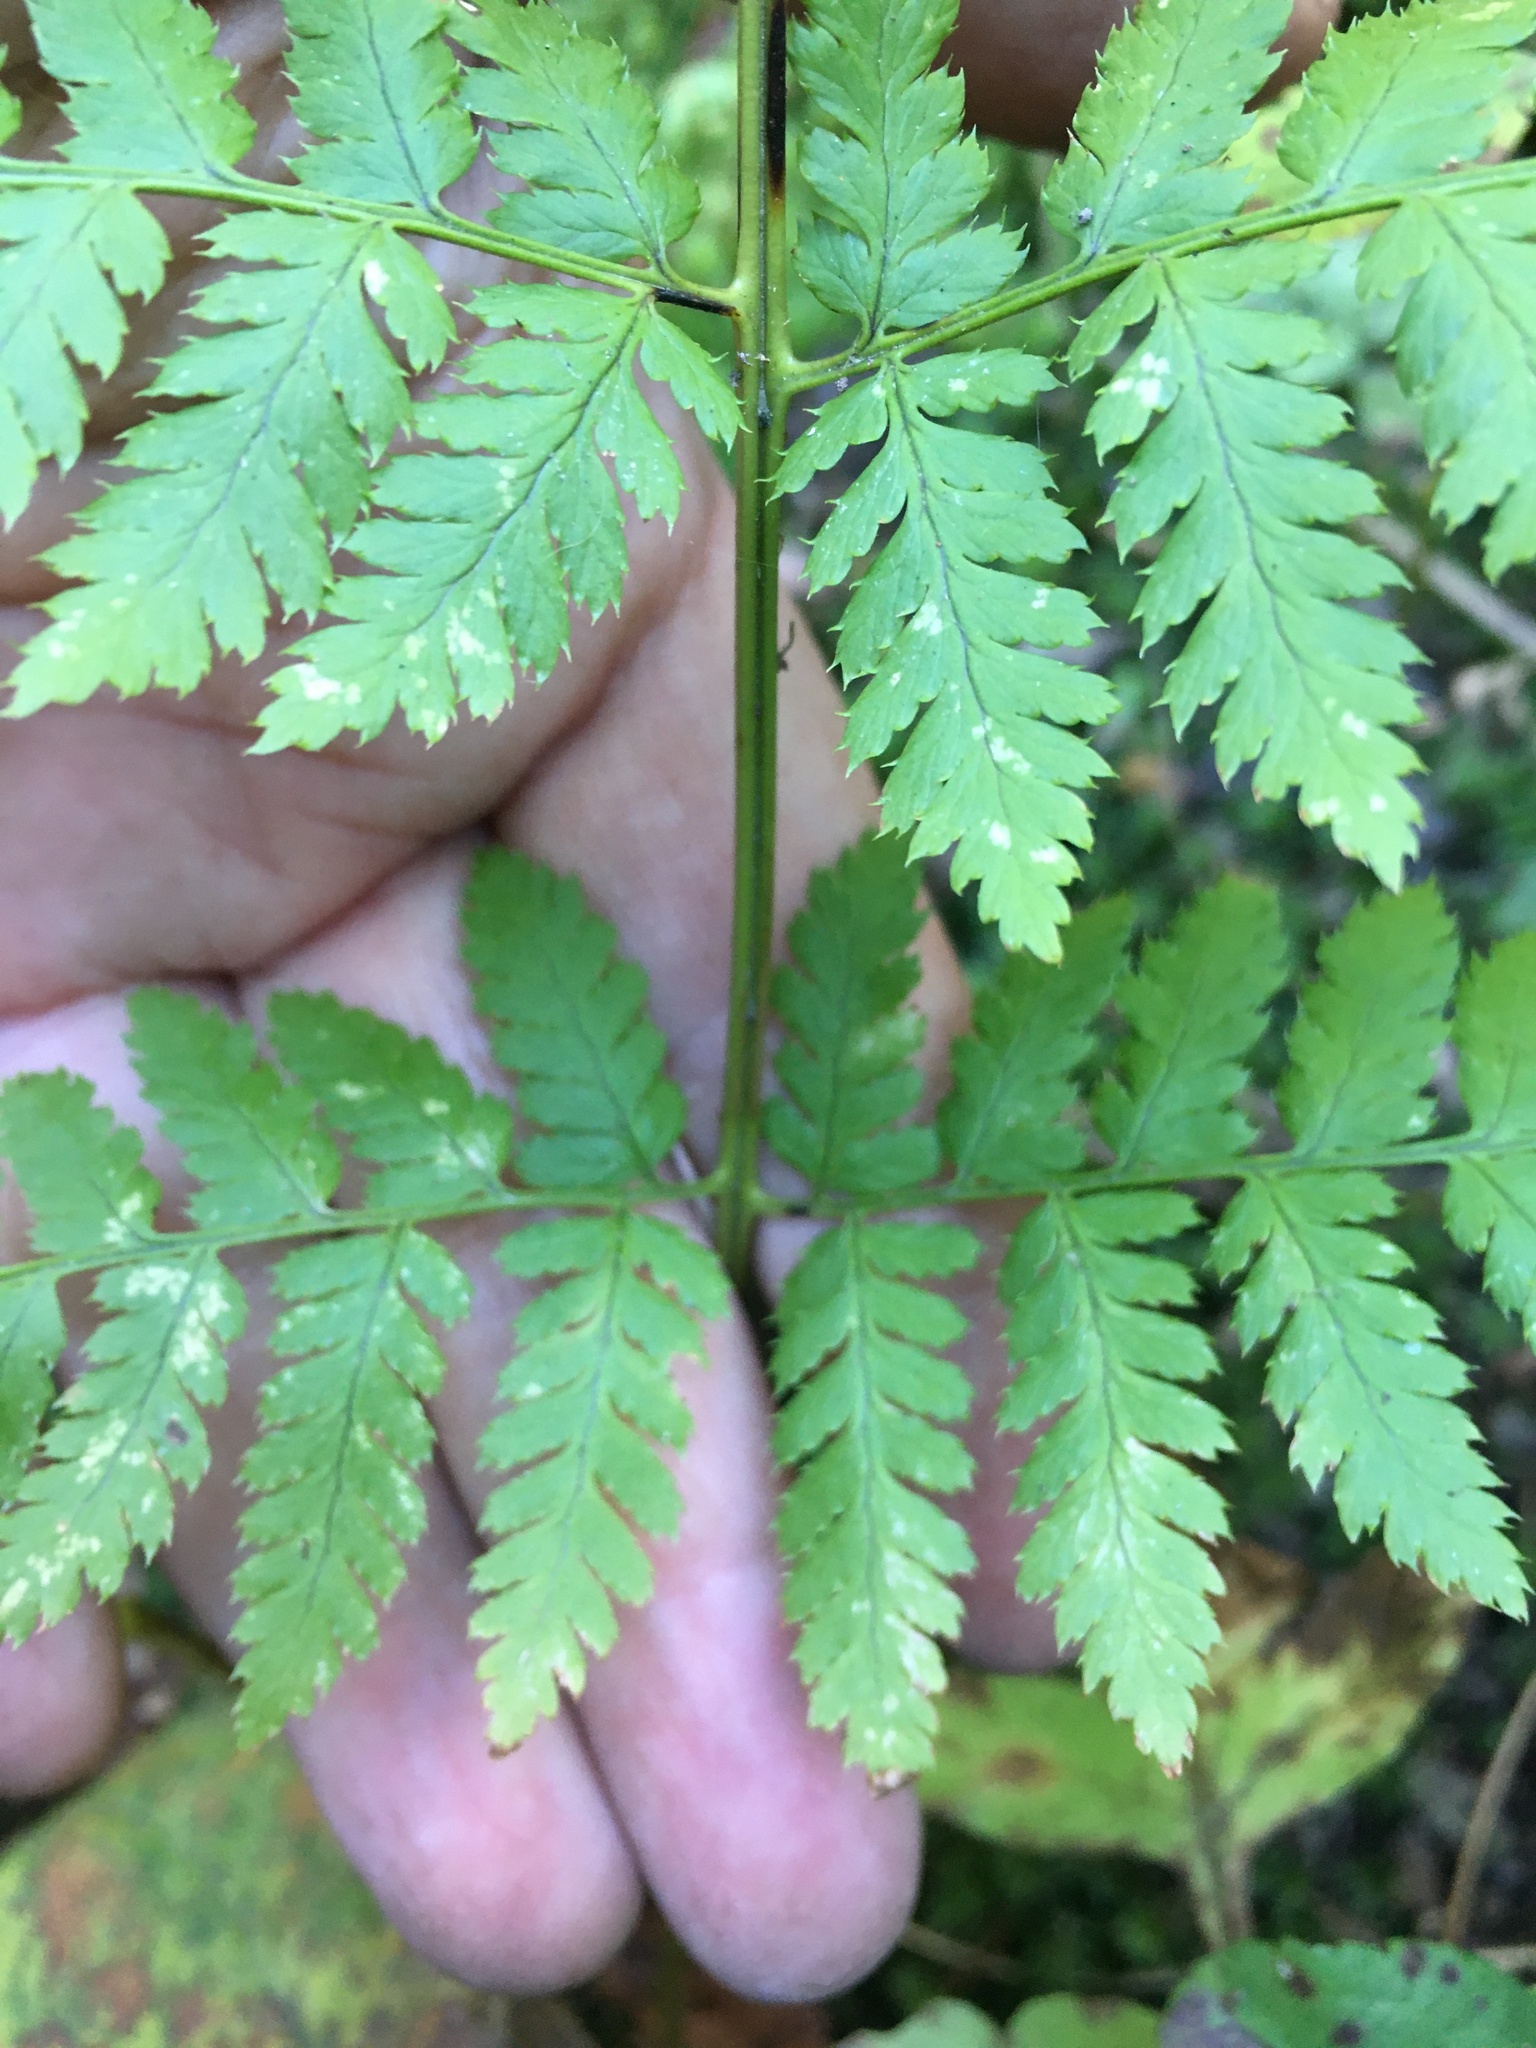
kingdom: Plantae
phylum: Tracheophyta
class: Polypodiopsida
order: Polypodiales
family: Dryopteridaceae
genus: Dryopteris
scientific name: Dryopteris triploidea
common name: Fruitful wood fern
